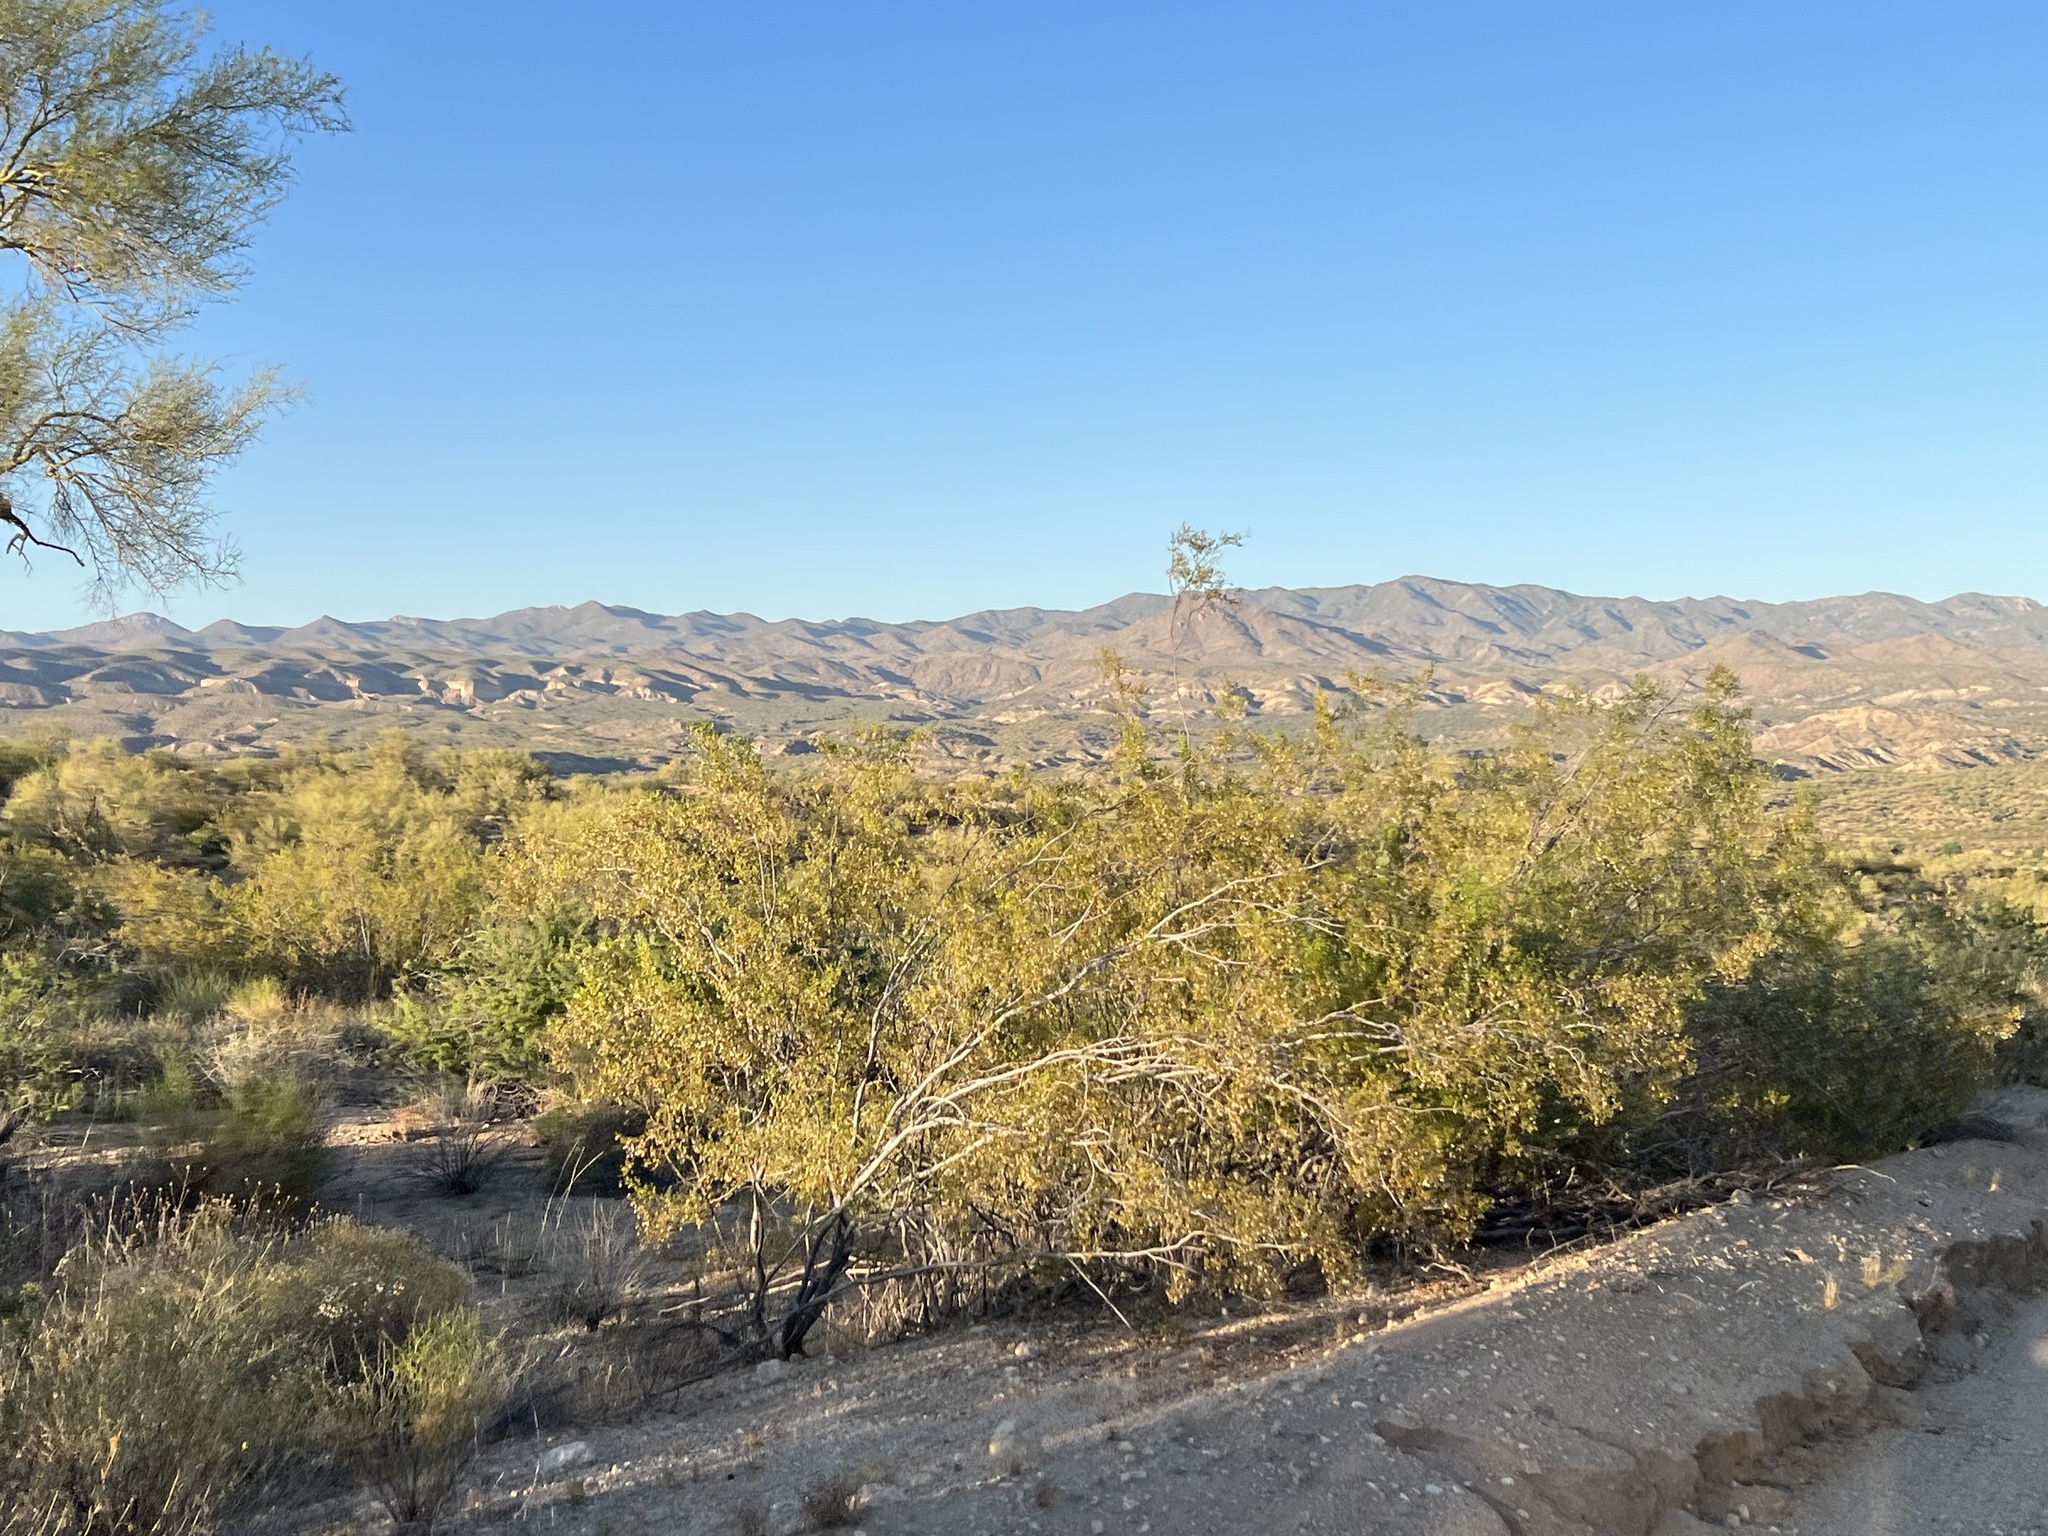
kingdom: Plantae
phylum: Tracheophyta
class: Magnoliopsida
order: Zygophyllales
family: Zygophyllaceae
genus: Larrea
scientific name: Larrea tridentata
